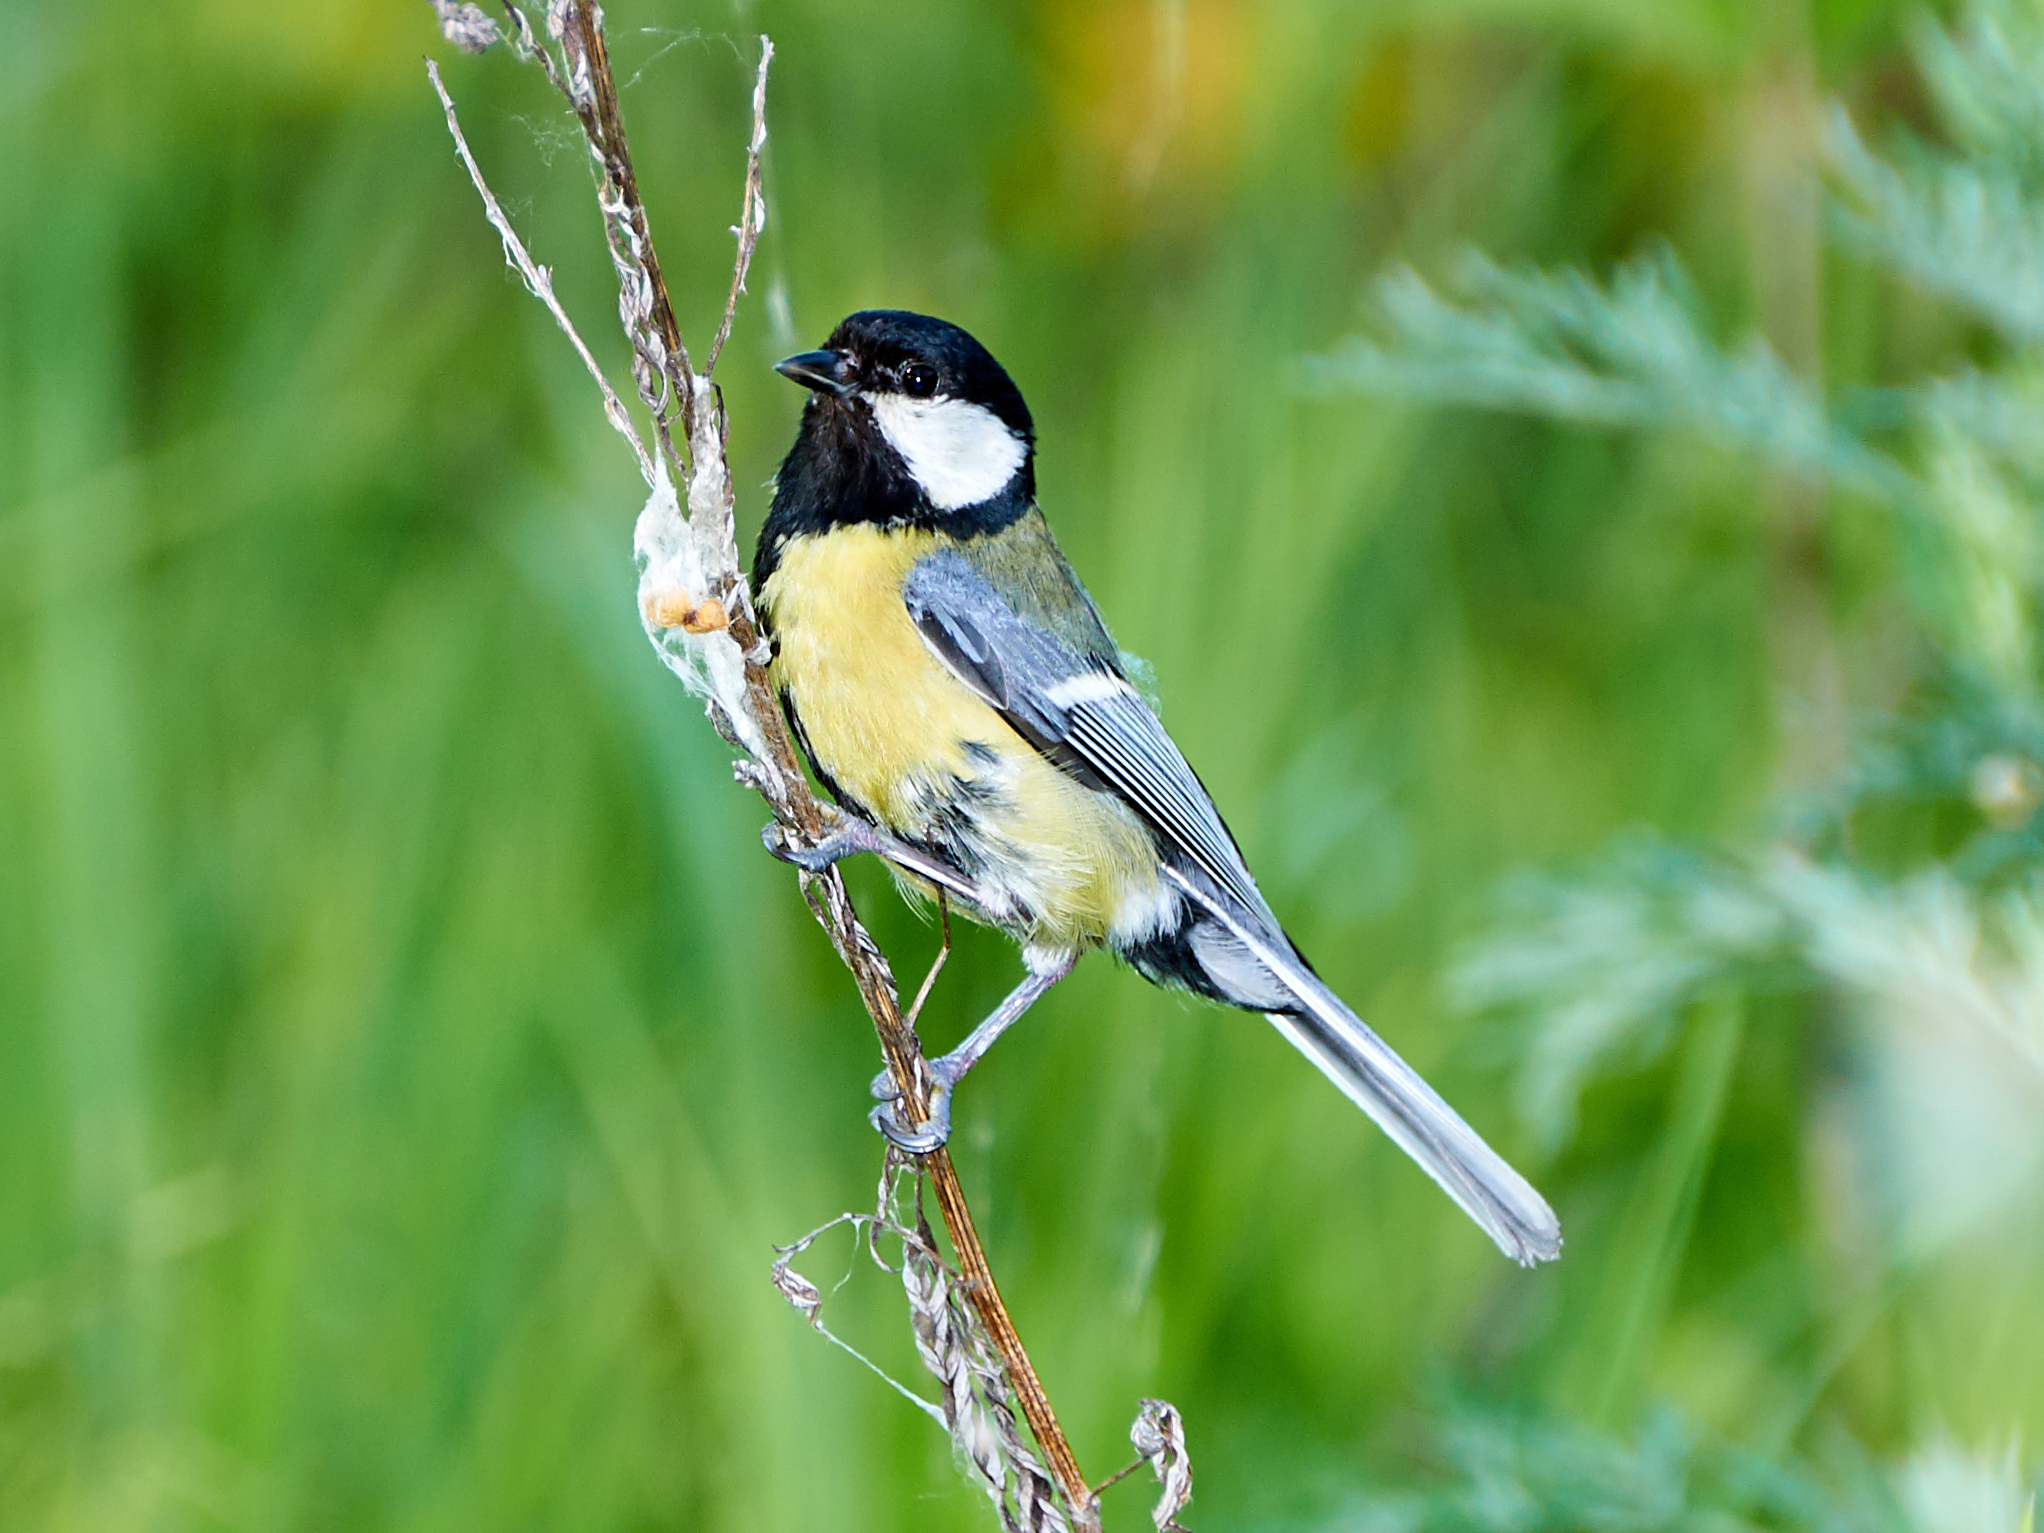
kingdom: Animalia
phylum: Chordata
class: Aves
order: Passeriformes
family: Paridae
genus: Parus
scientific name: Parus major
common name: Great tit
